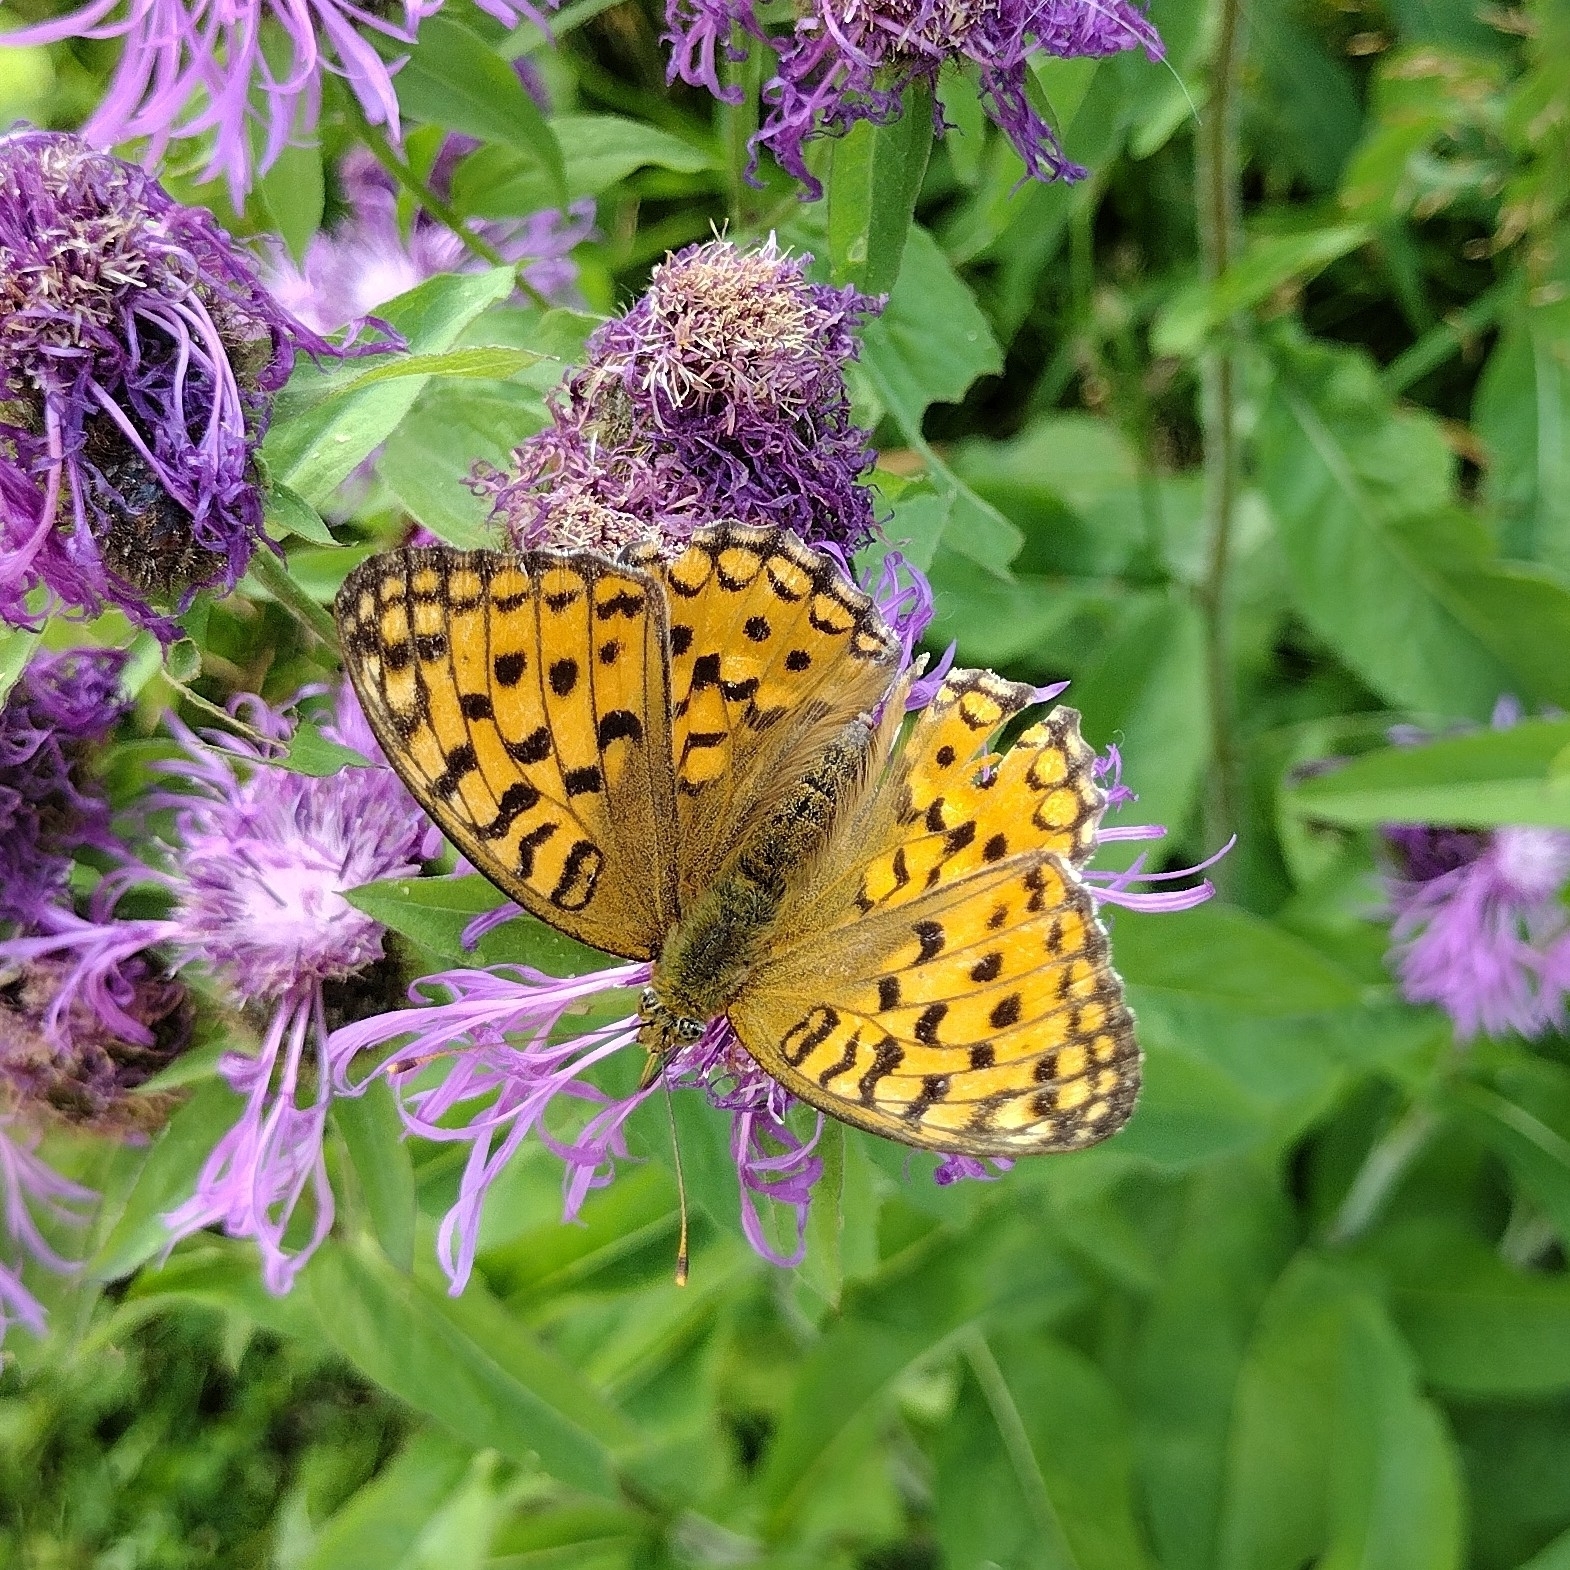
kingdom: Animalia
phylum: Arthropoda
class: Insecta
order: Lepidoptera
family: Nymphalidae
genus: Fabriciana
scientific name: Fabriciana adippe
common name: High brown fritillary
